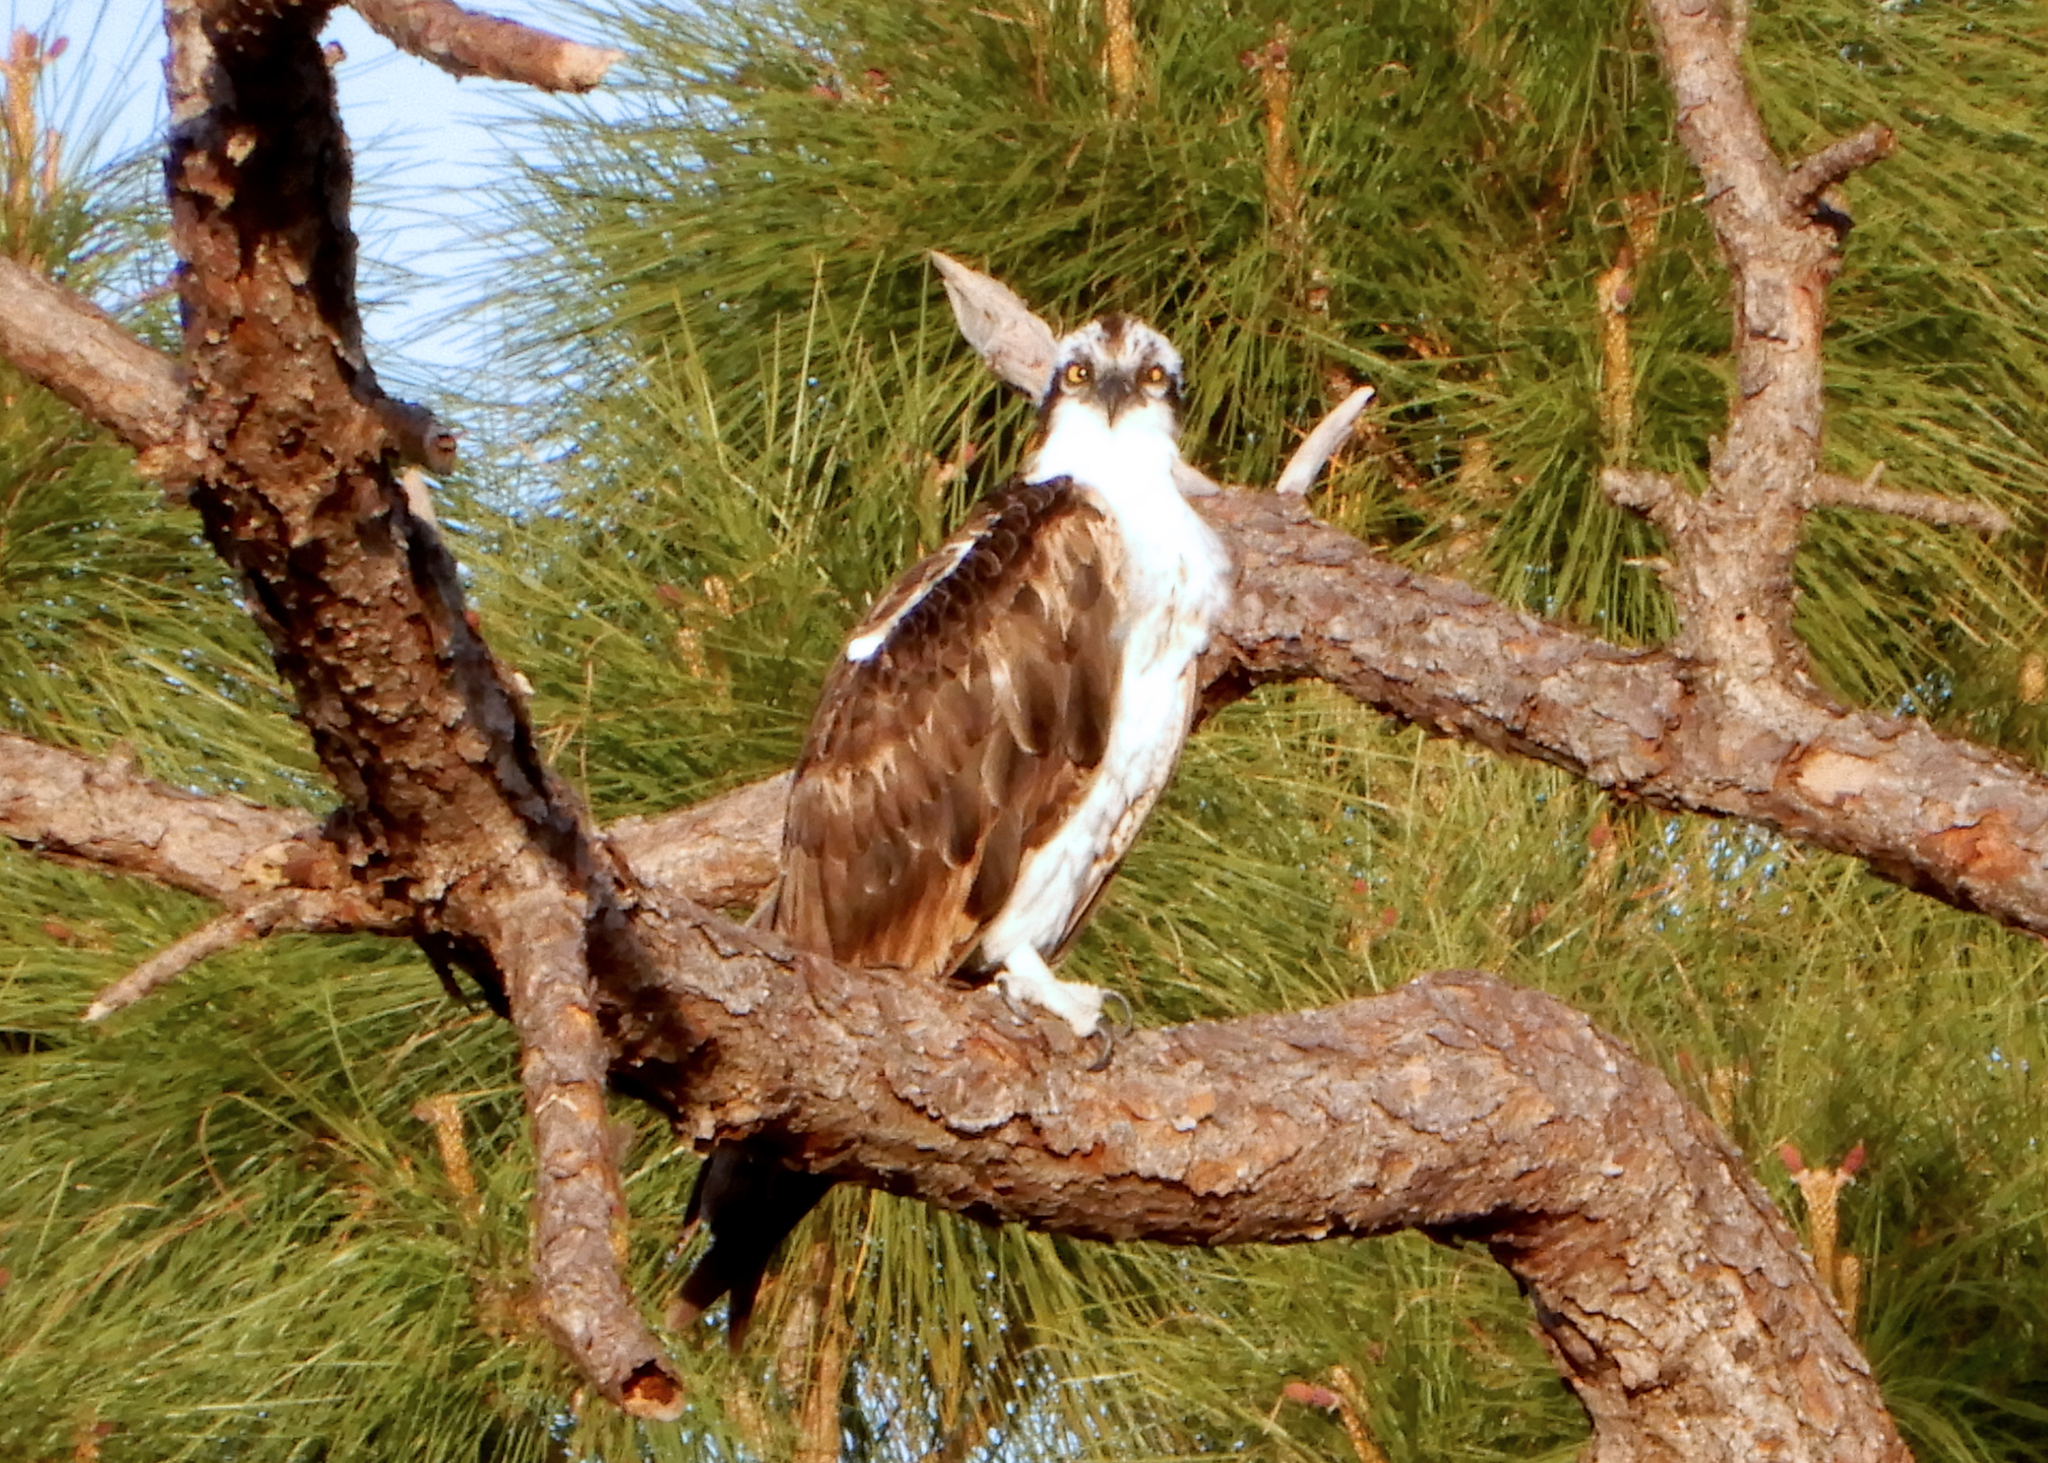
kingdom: Animalia
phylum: Chordata
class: Aves
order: Accipitriformes
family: Pandionidae
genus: Pandion
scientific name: Pandion haliaetus
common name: Osprey
